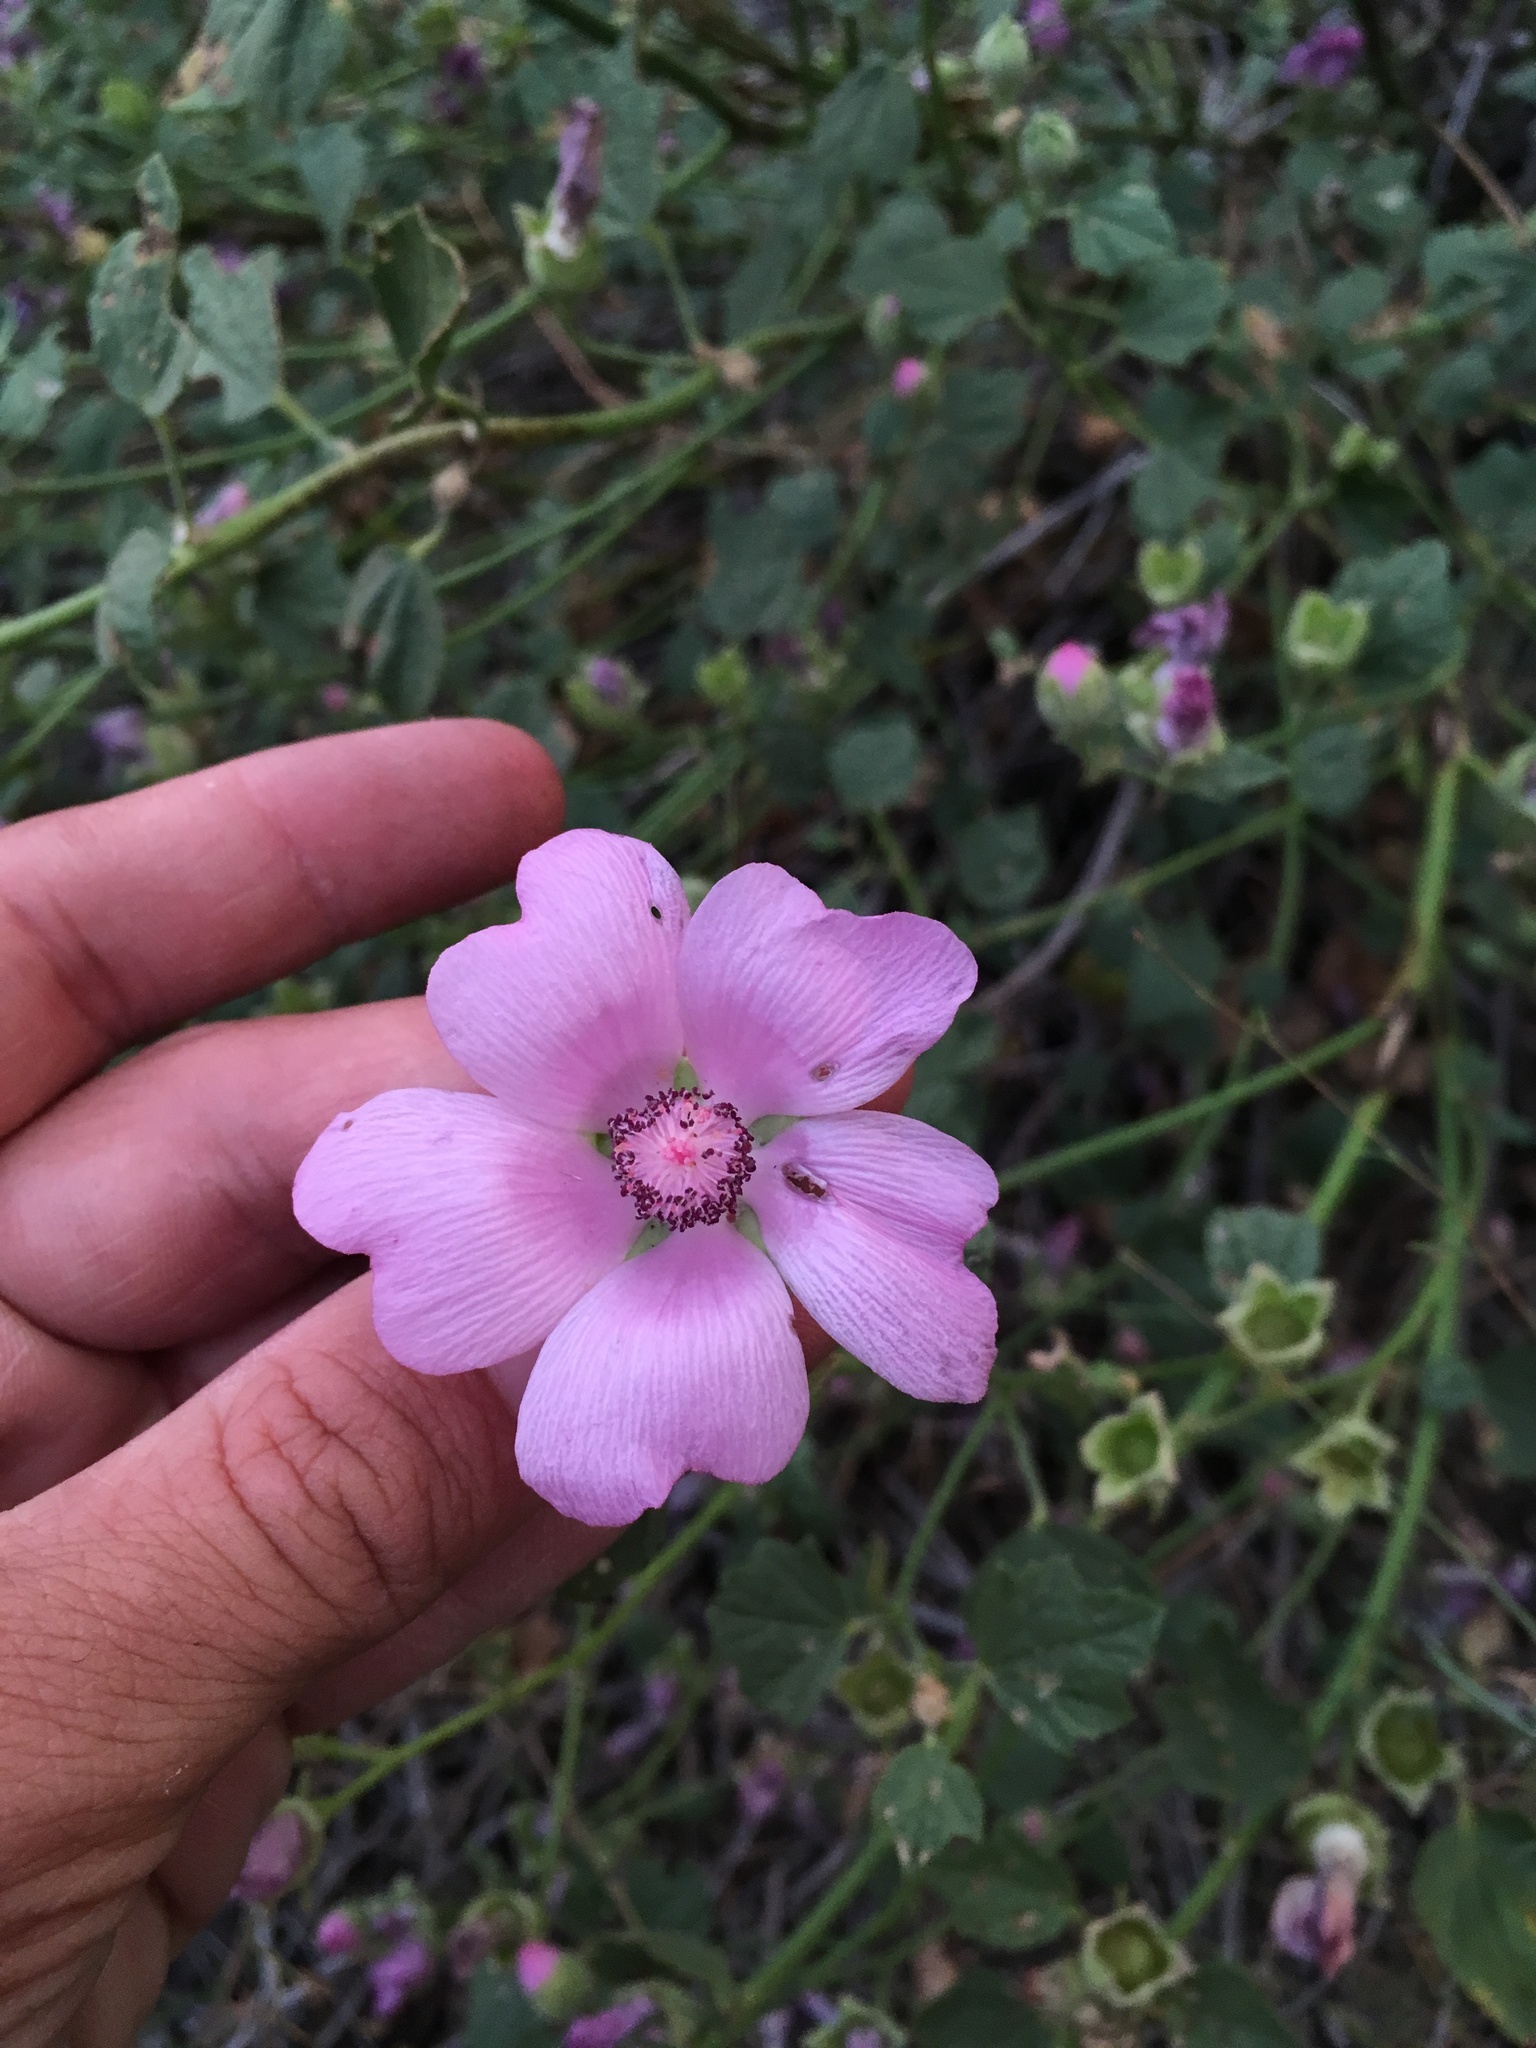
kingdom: Plantae
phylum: Tracheophyta
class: Magnoliopsida
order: Malvales
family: Malvaceae
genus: Iliamna
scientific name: Iliamna bakeri
